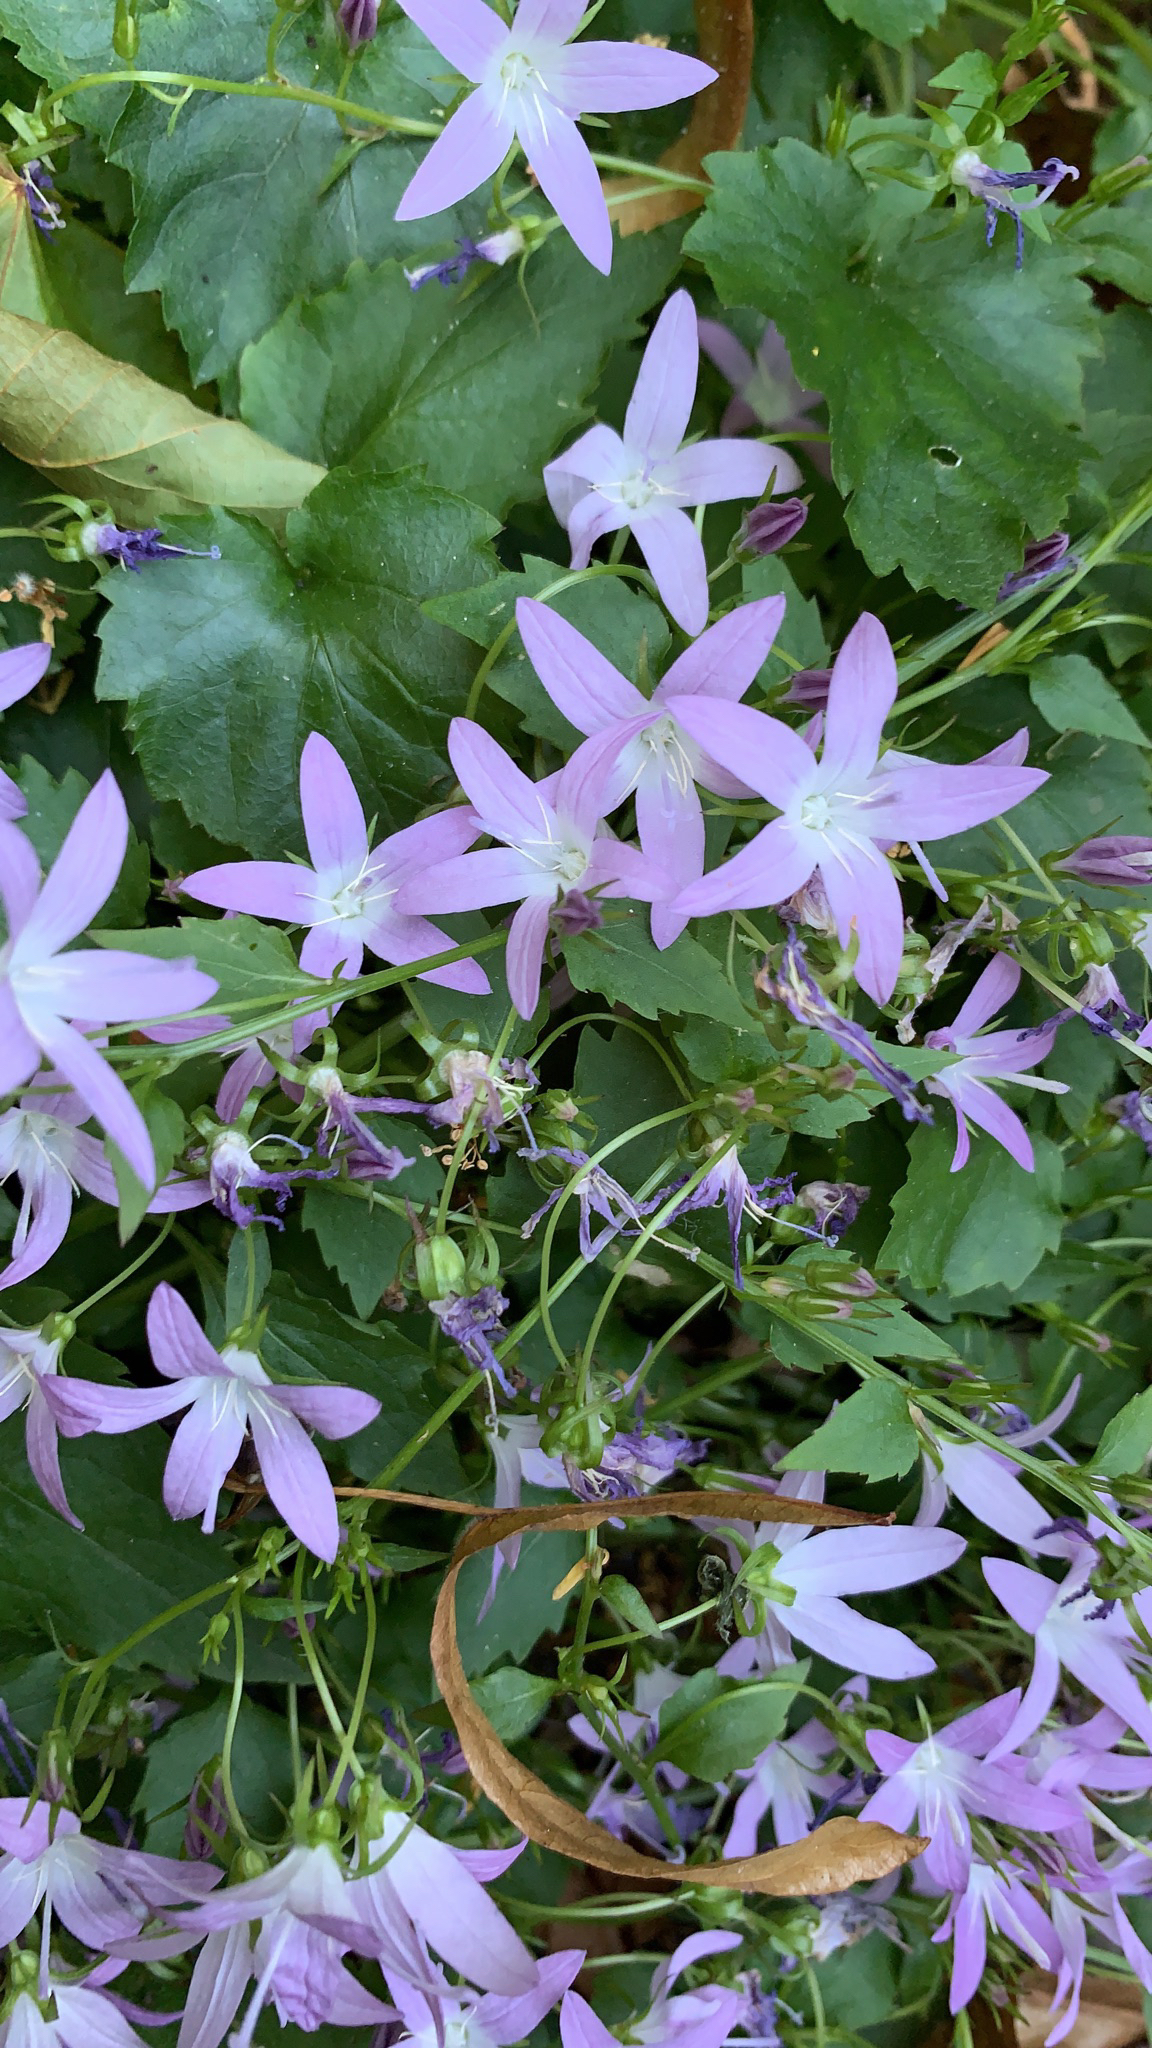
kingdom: Plantae
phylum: Tracheophyta
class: Magnoliopsida
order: Asterales
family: Campanulaceae
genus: Campanula
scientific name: Campanula poscharskyana
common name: Trailing bellflower
